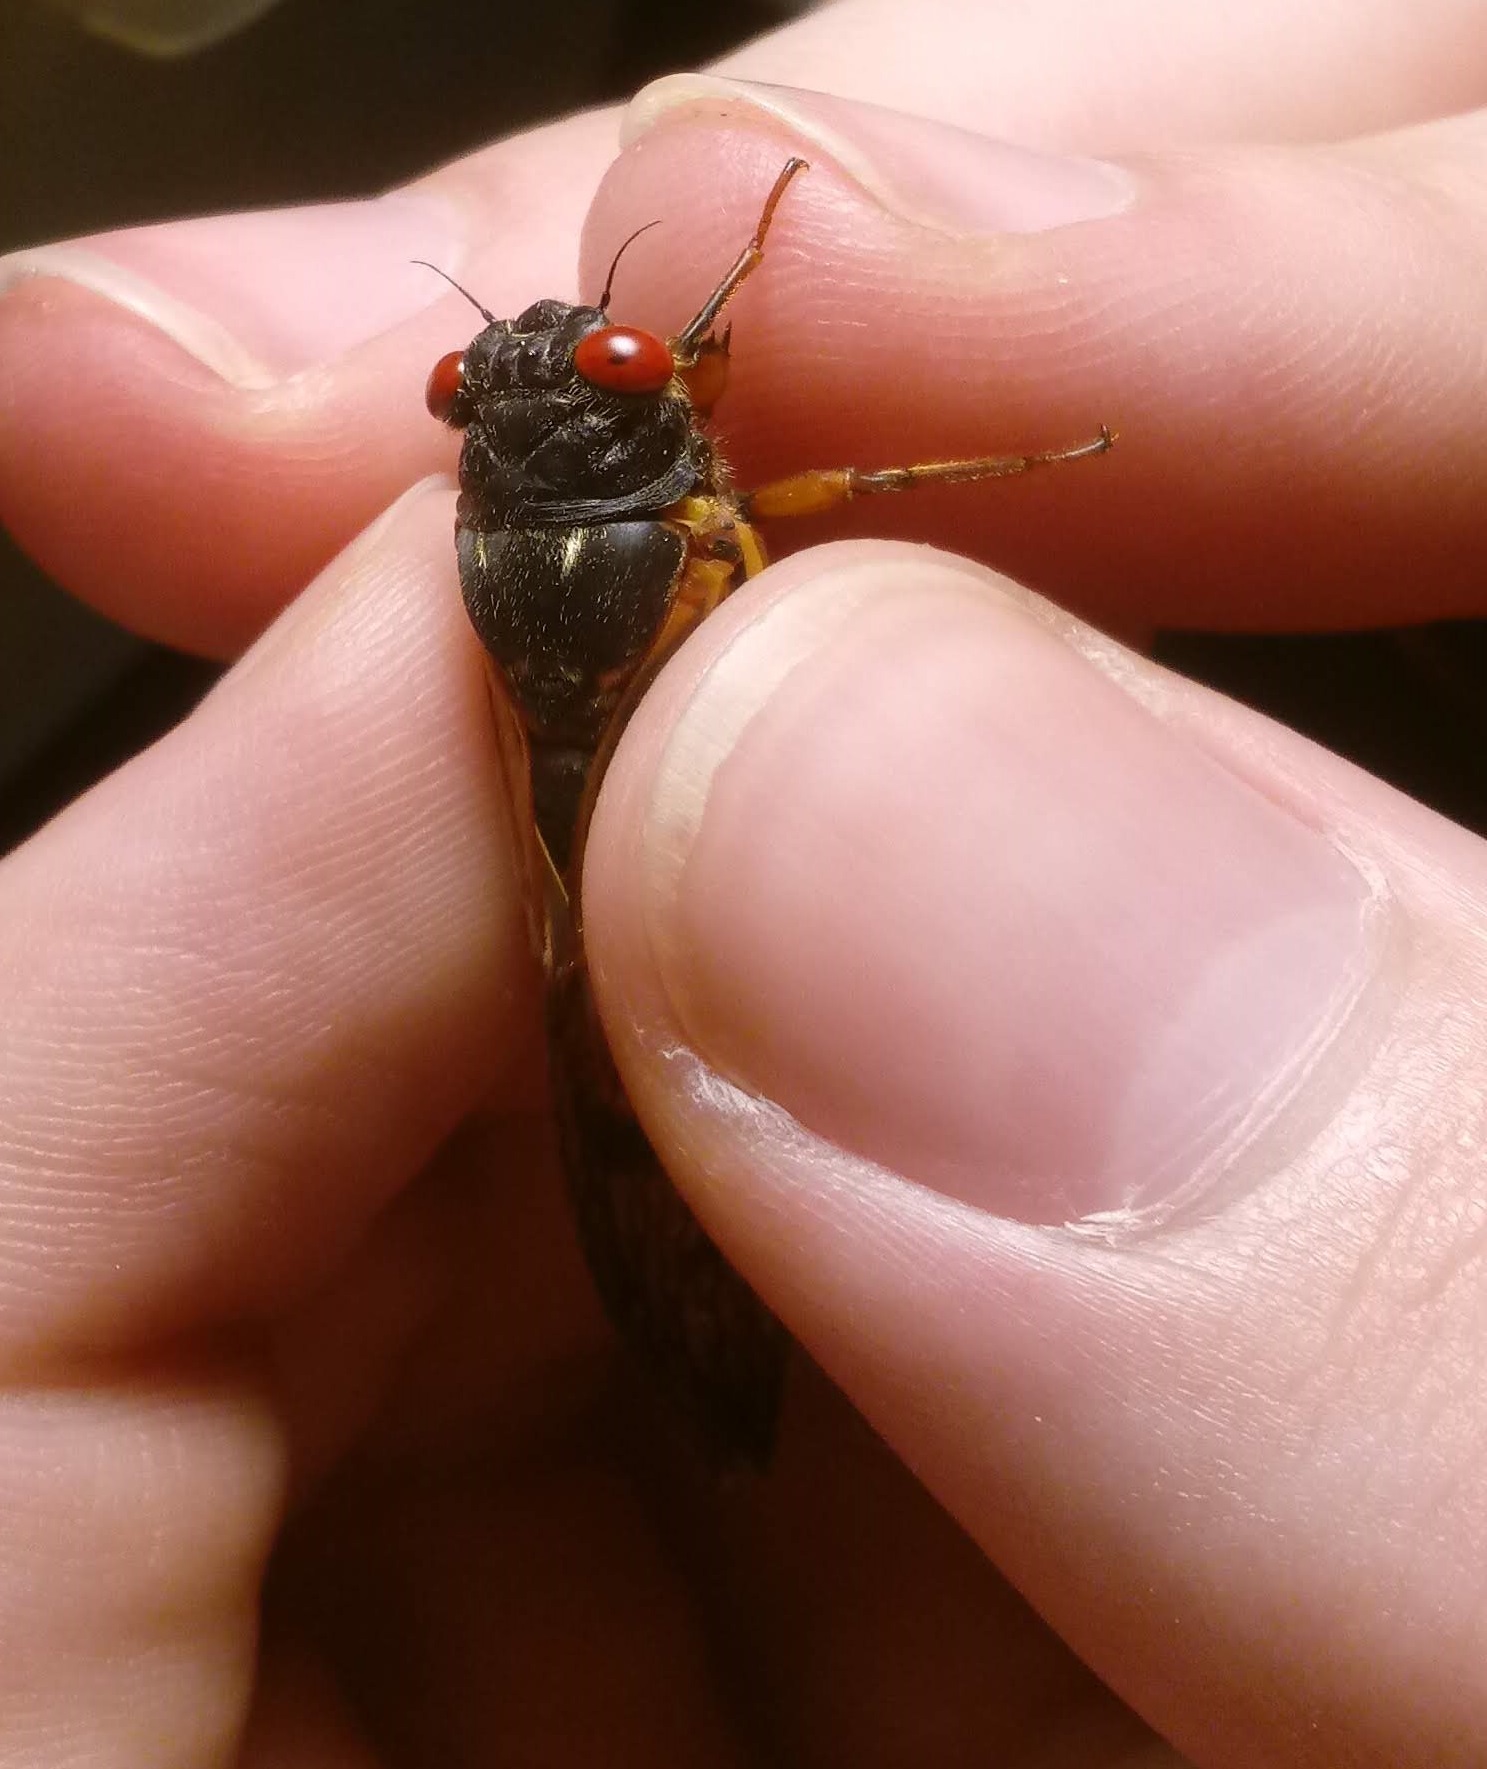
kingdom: Animalia
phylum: Arthropoda
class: Insecta
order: Hemiptera
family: Cicadidae
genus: Magicicada
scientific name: Magicicada septendecula
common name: Decula periodical cicada
